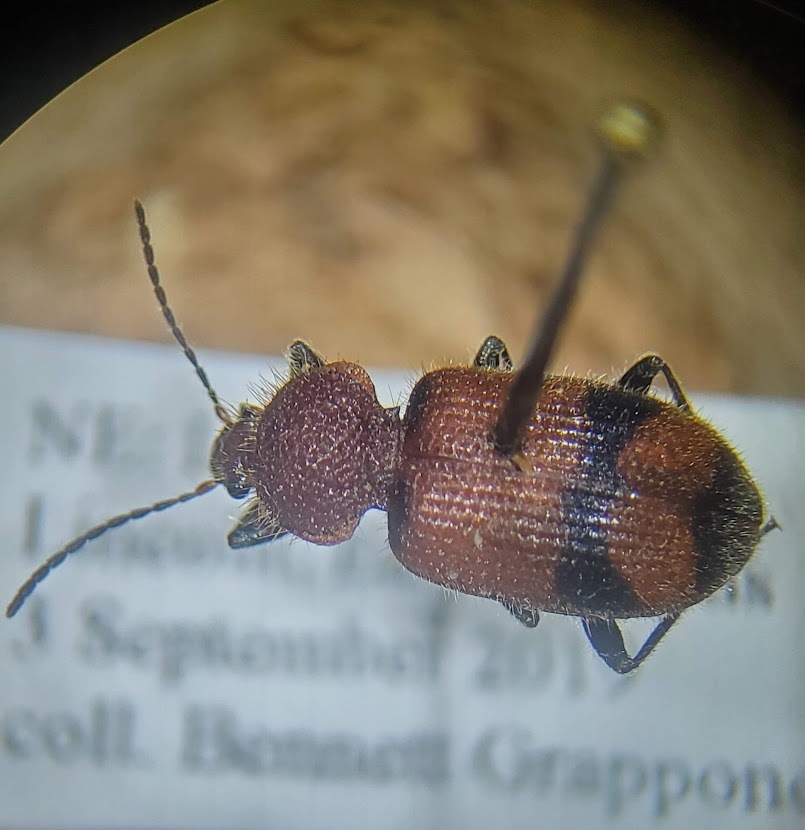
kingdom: Animalia
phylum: Arthropoda
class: Insecta
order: Coleoptera
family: Carabidae
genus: Panagaeus
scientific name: Panagaeus fasciatus
